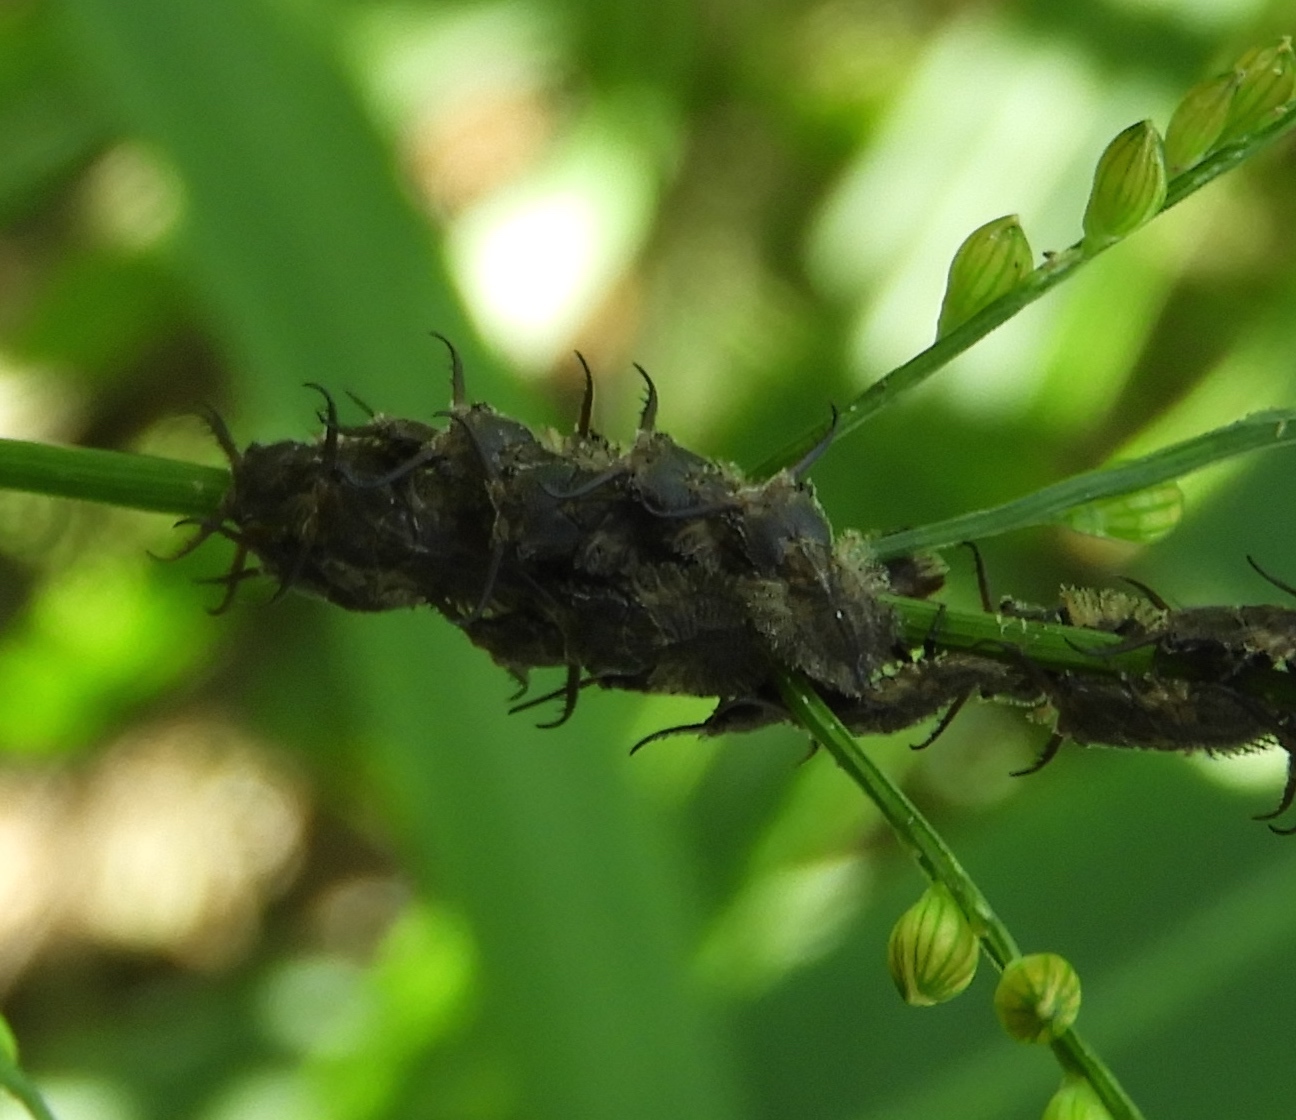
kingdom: Animalia
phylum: Arthropoda
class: Insecta
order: Neuroptera
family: Ascalaphidae
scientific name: Ascalaphidae
